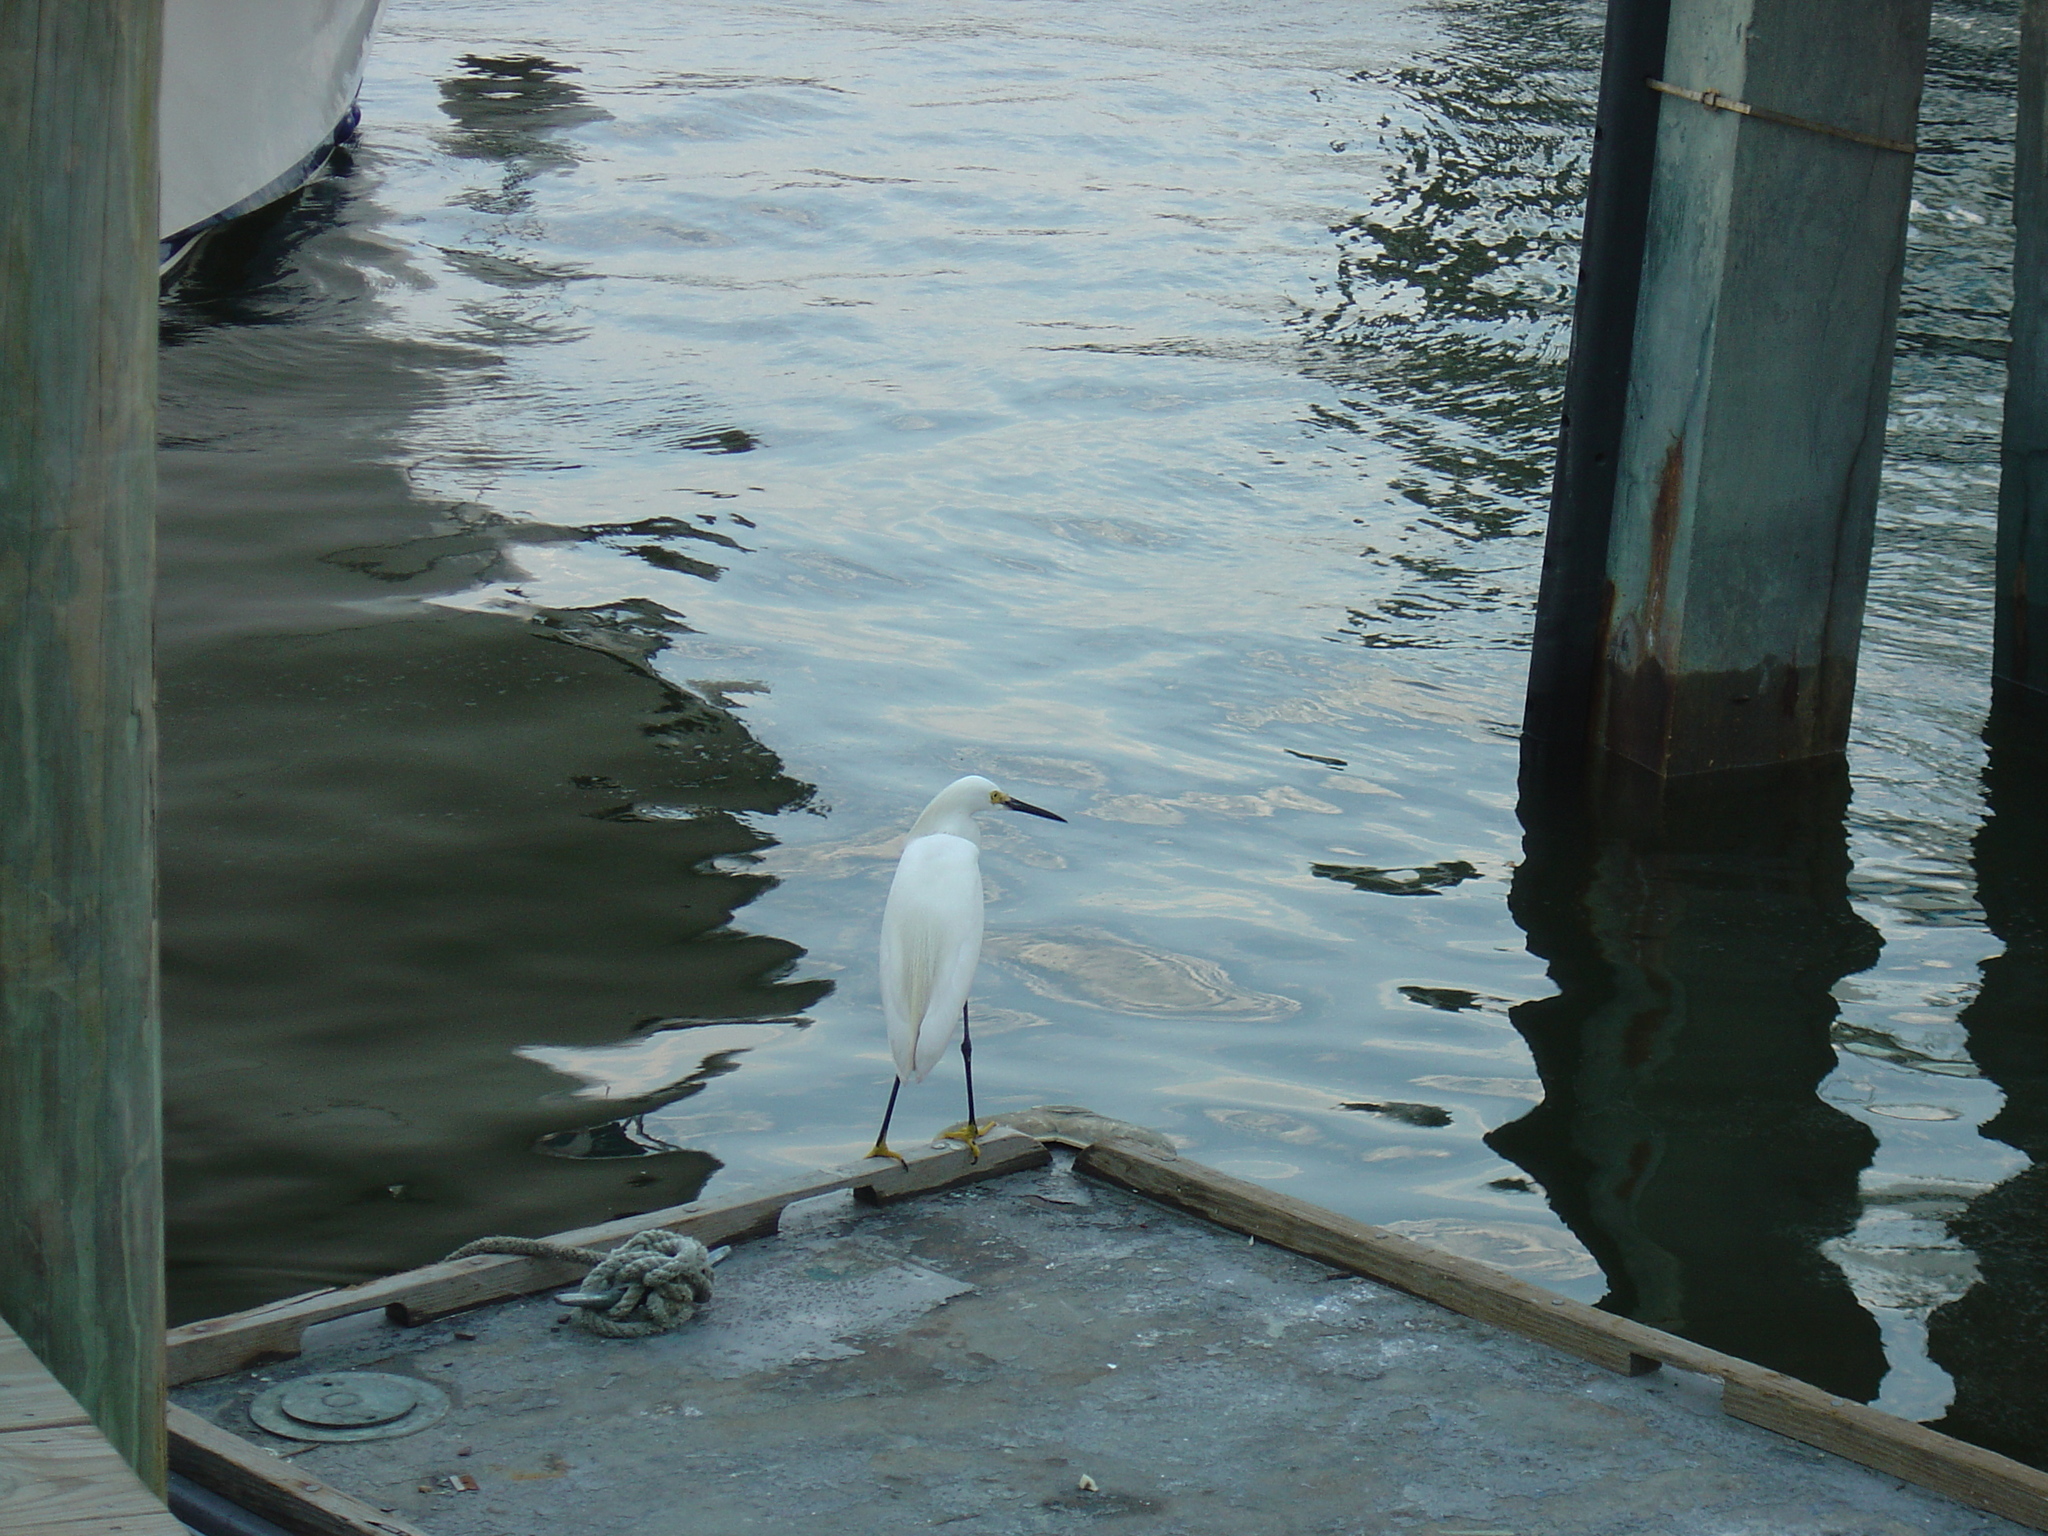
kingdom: Animalia
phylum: Chordata
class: Aves
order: Pelecaniformes
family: Ardeidae
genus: Egretta
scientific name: Egretta thula
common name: Snowy egret
